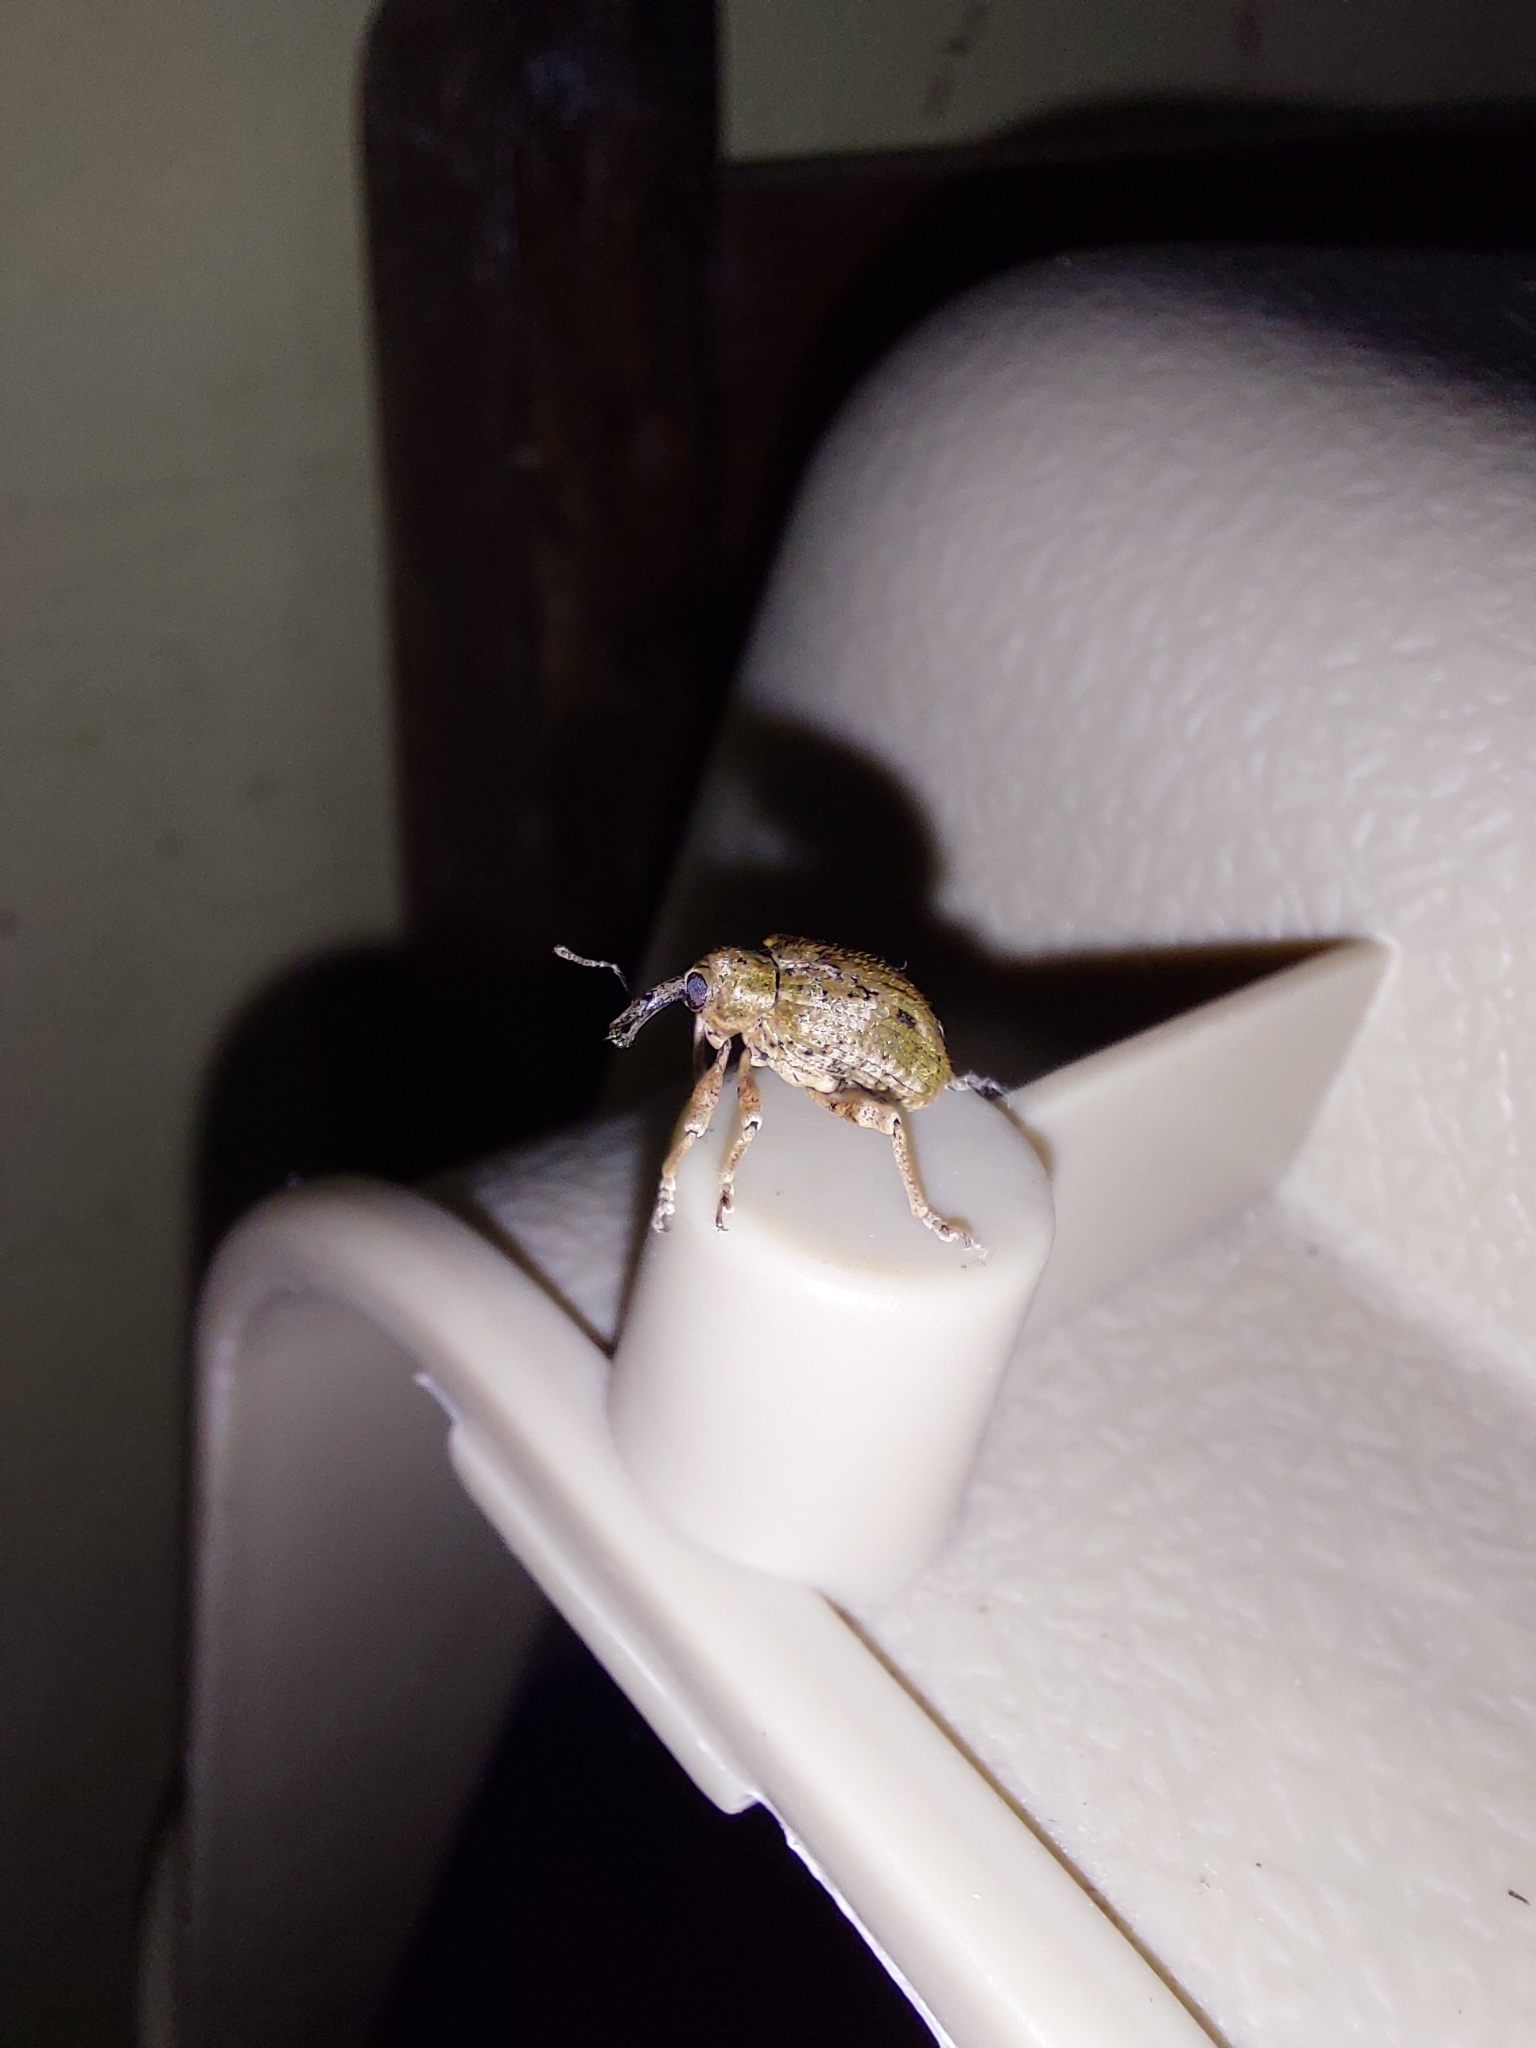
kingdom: Animalia
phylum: Arthropoda
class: Insecta
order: Coleoptera
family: Curculionidae
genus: Phelypera
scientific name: Phelypera
